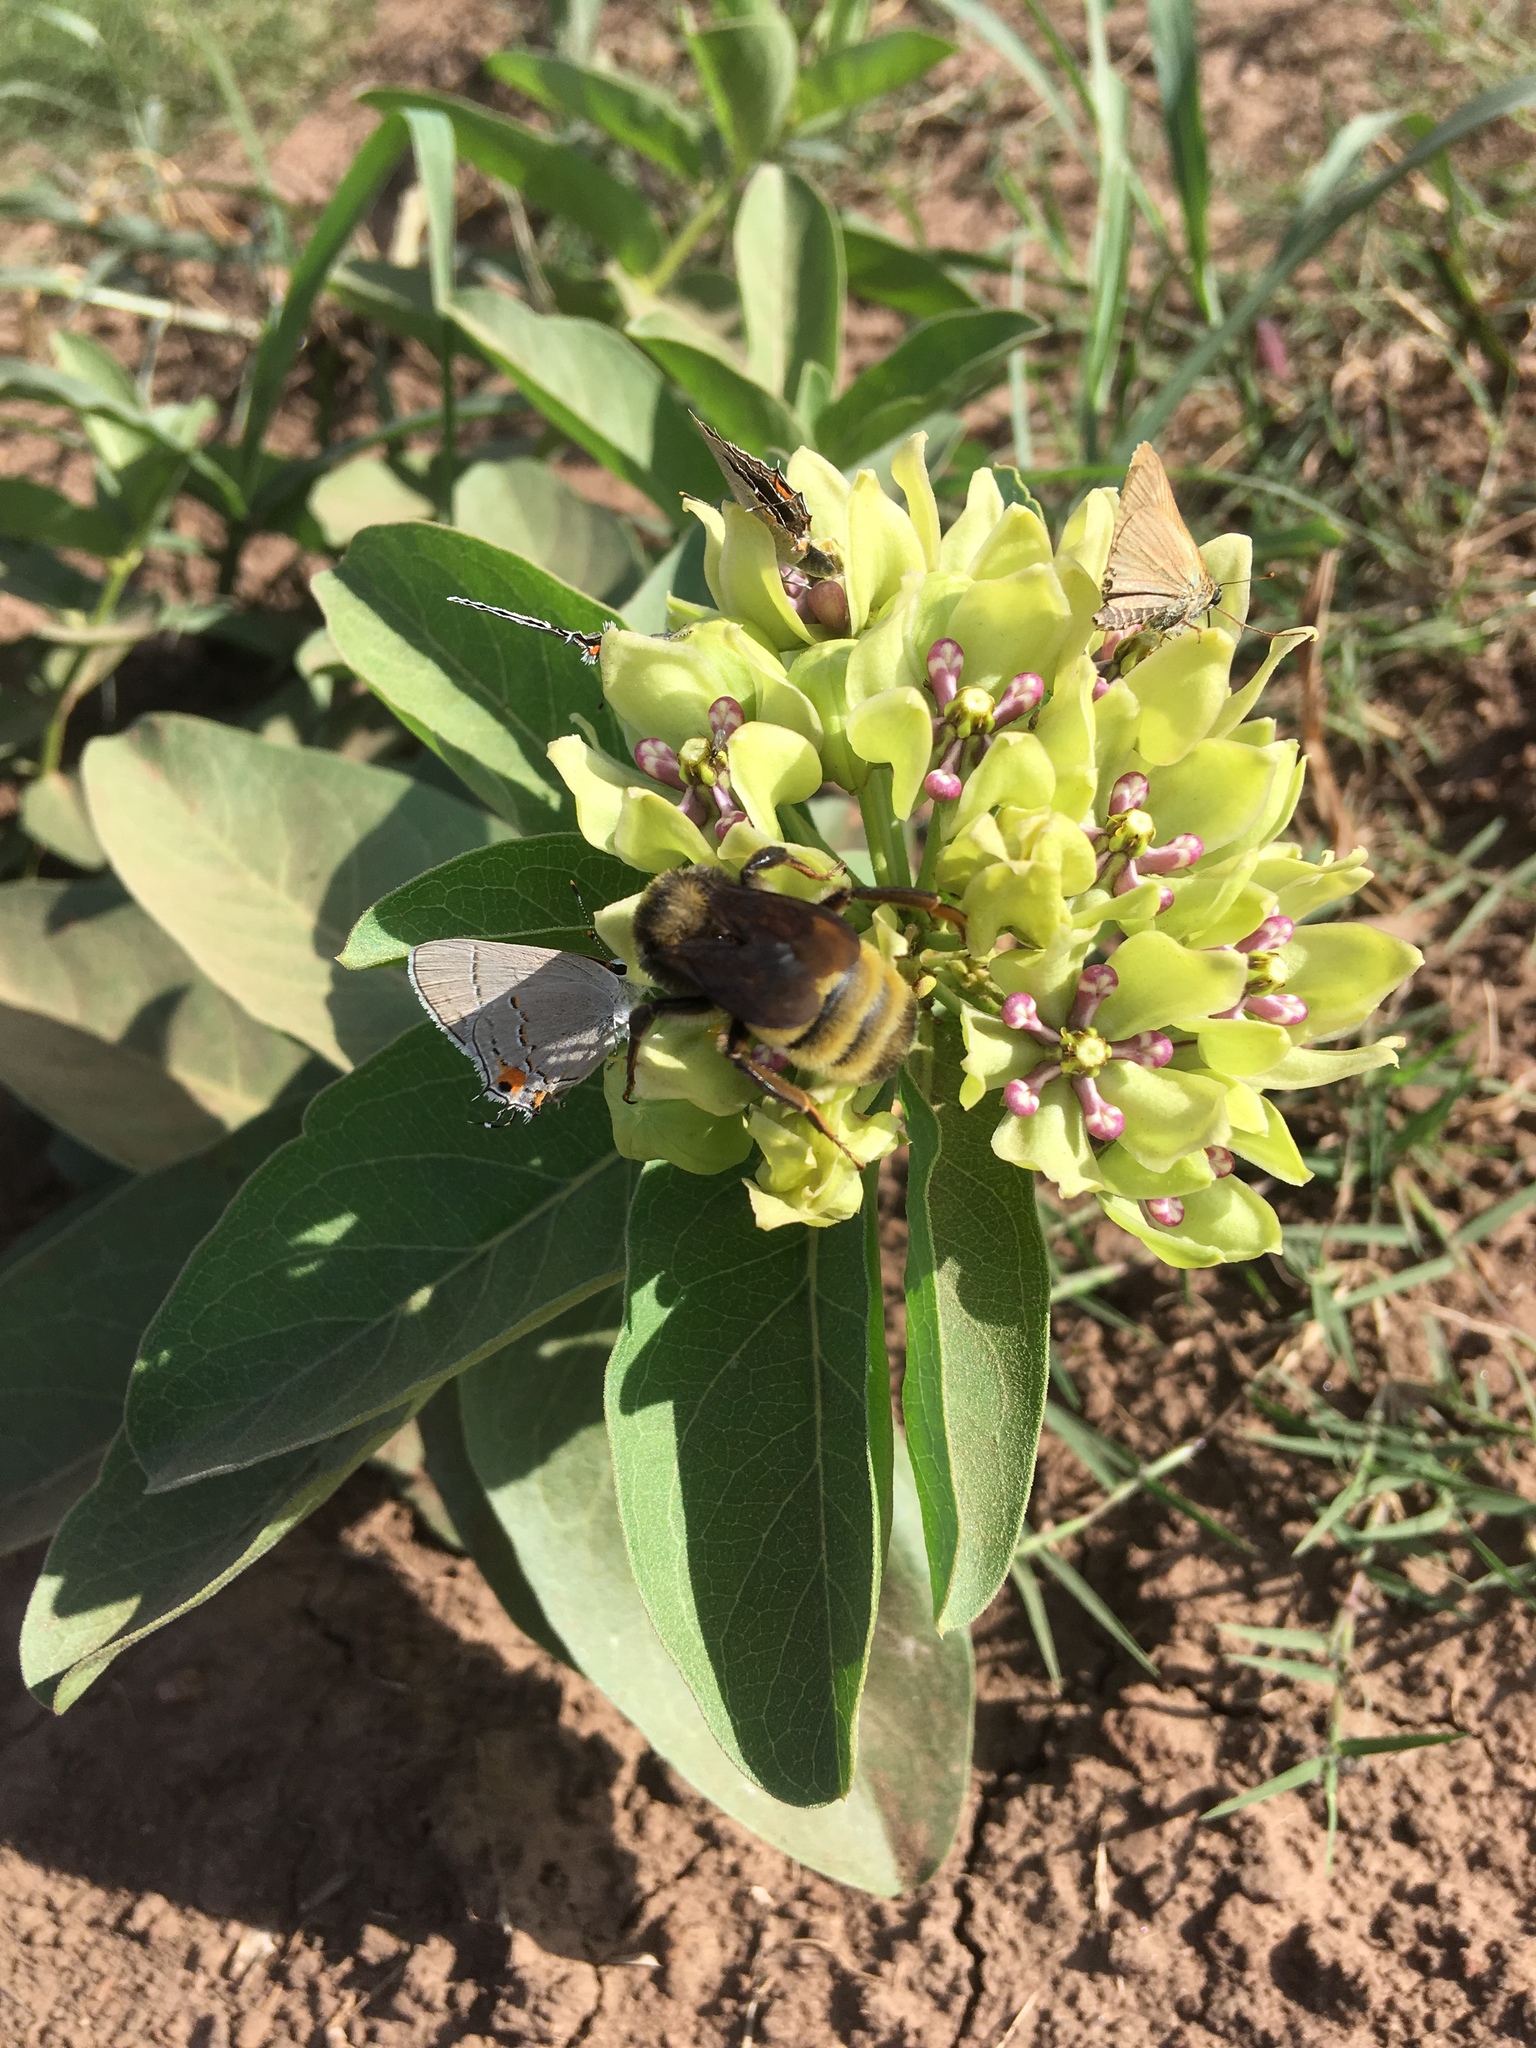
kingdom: Animalia
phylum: Arthropoda
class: Insecta
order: Hymenoptera
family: Apidae
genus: Bombus
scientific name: Bombus pensylvanicus
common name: Bumble bee
